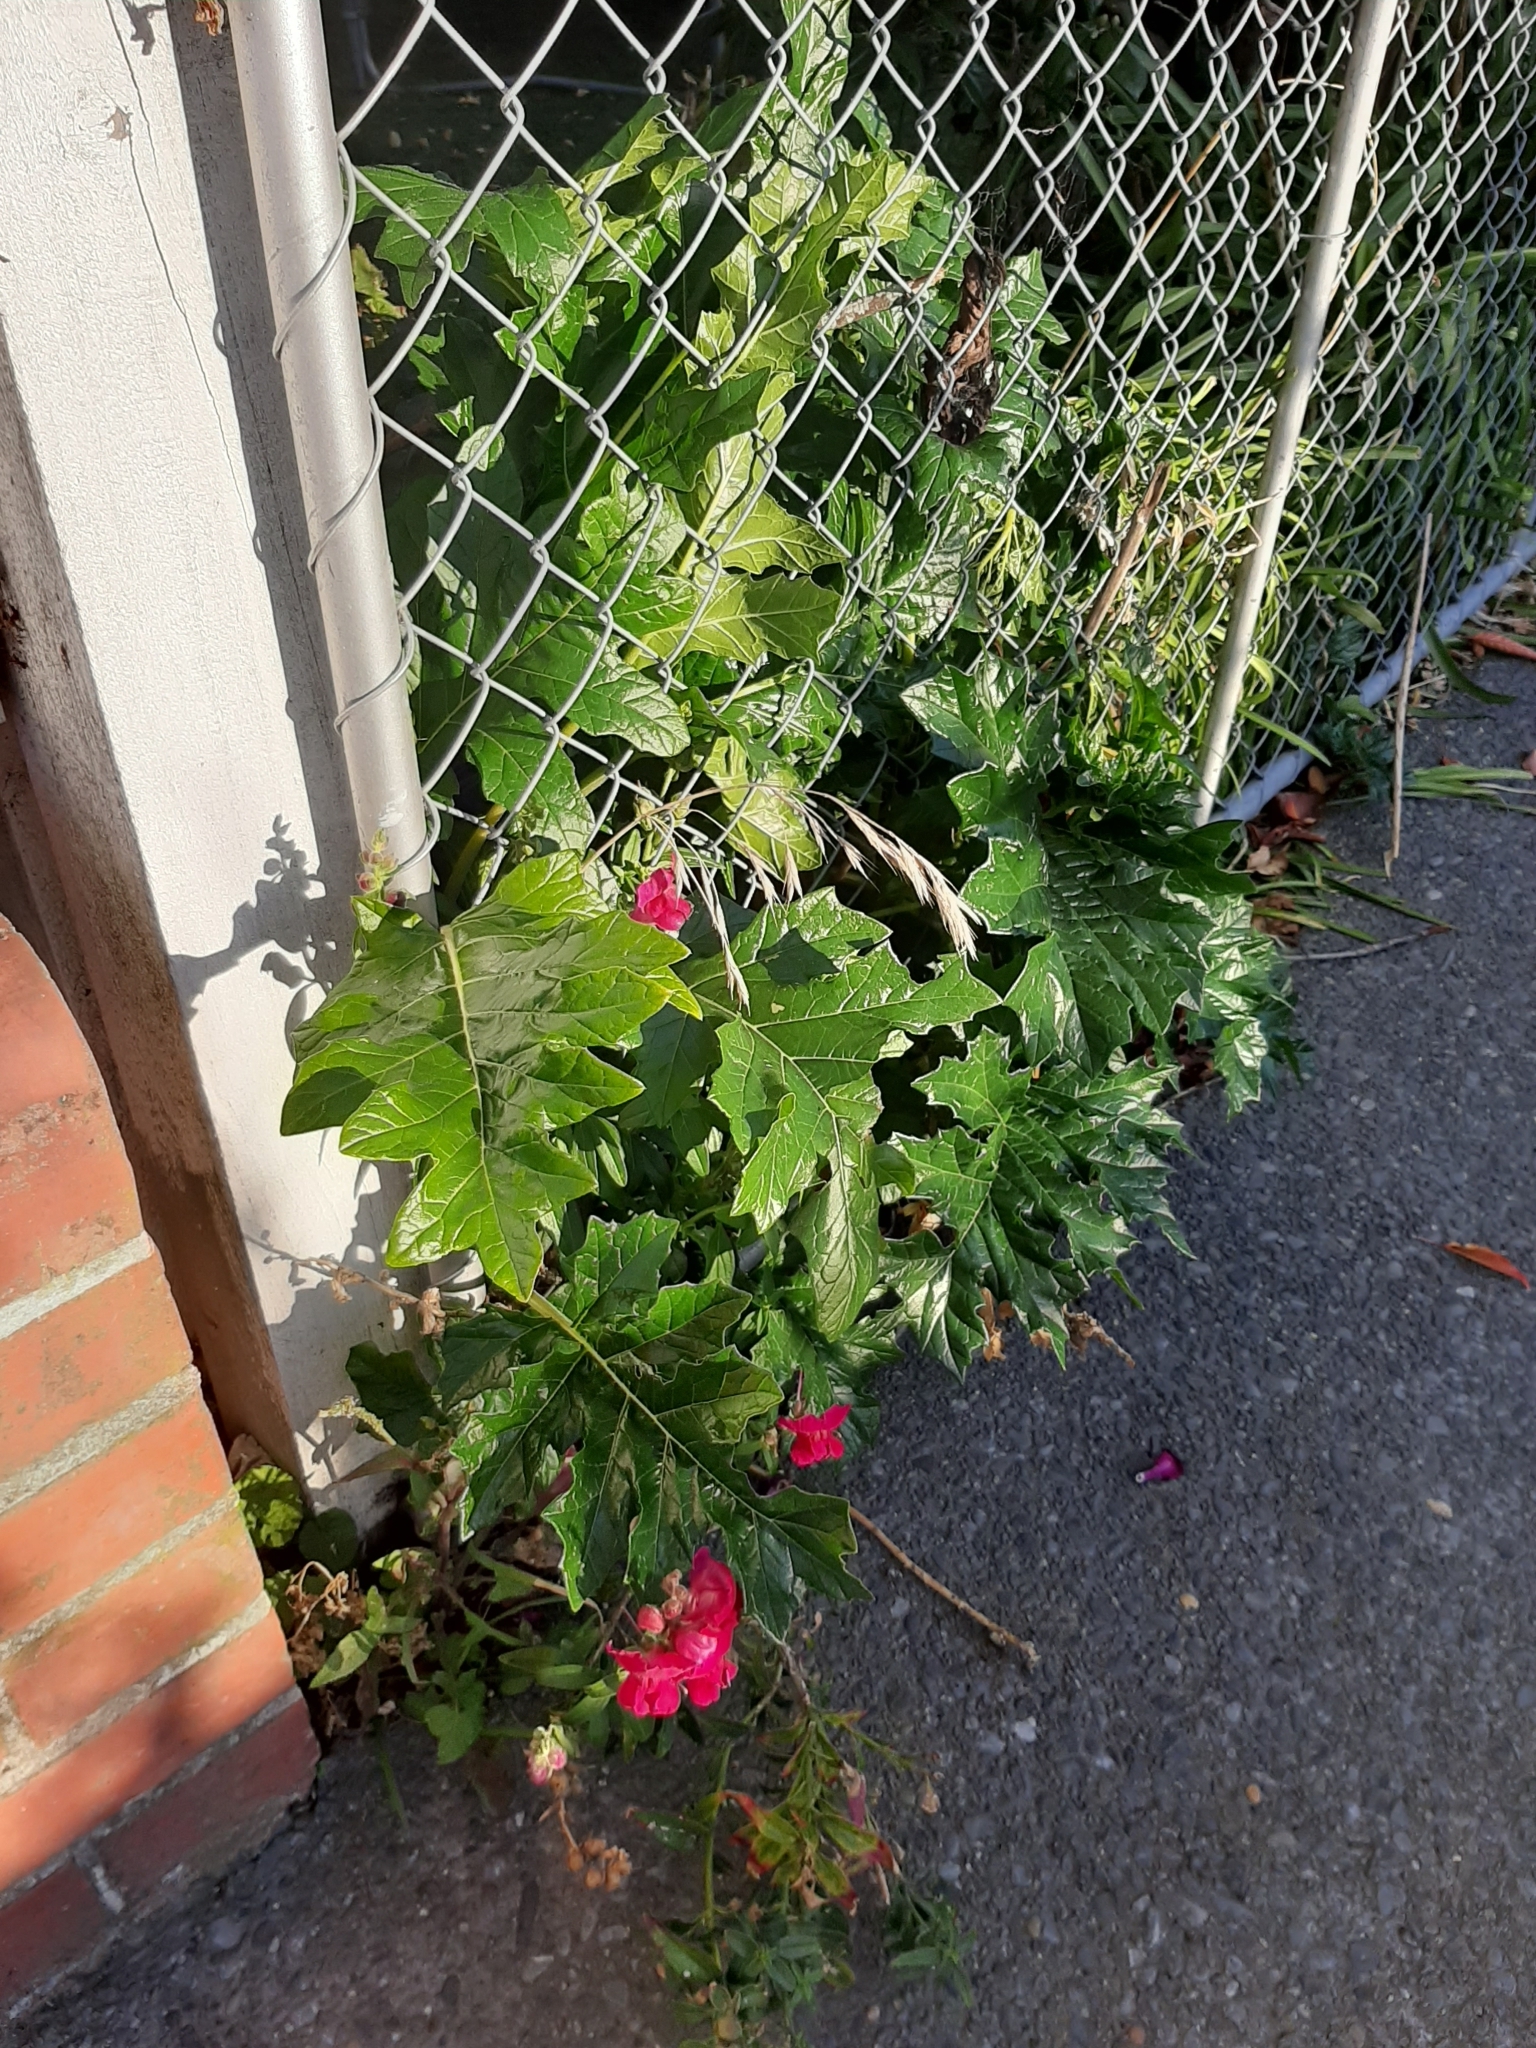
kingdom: Plantae
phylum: Tracheophyta
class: Magnoliopsida
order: Lamiales
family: Acanthaceae
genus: Acanthus
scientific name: Acanthus mollis
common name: Bear's-breech
